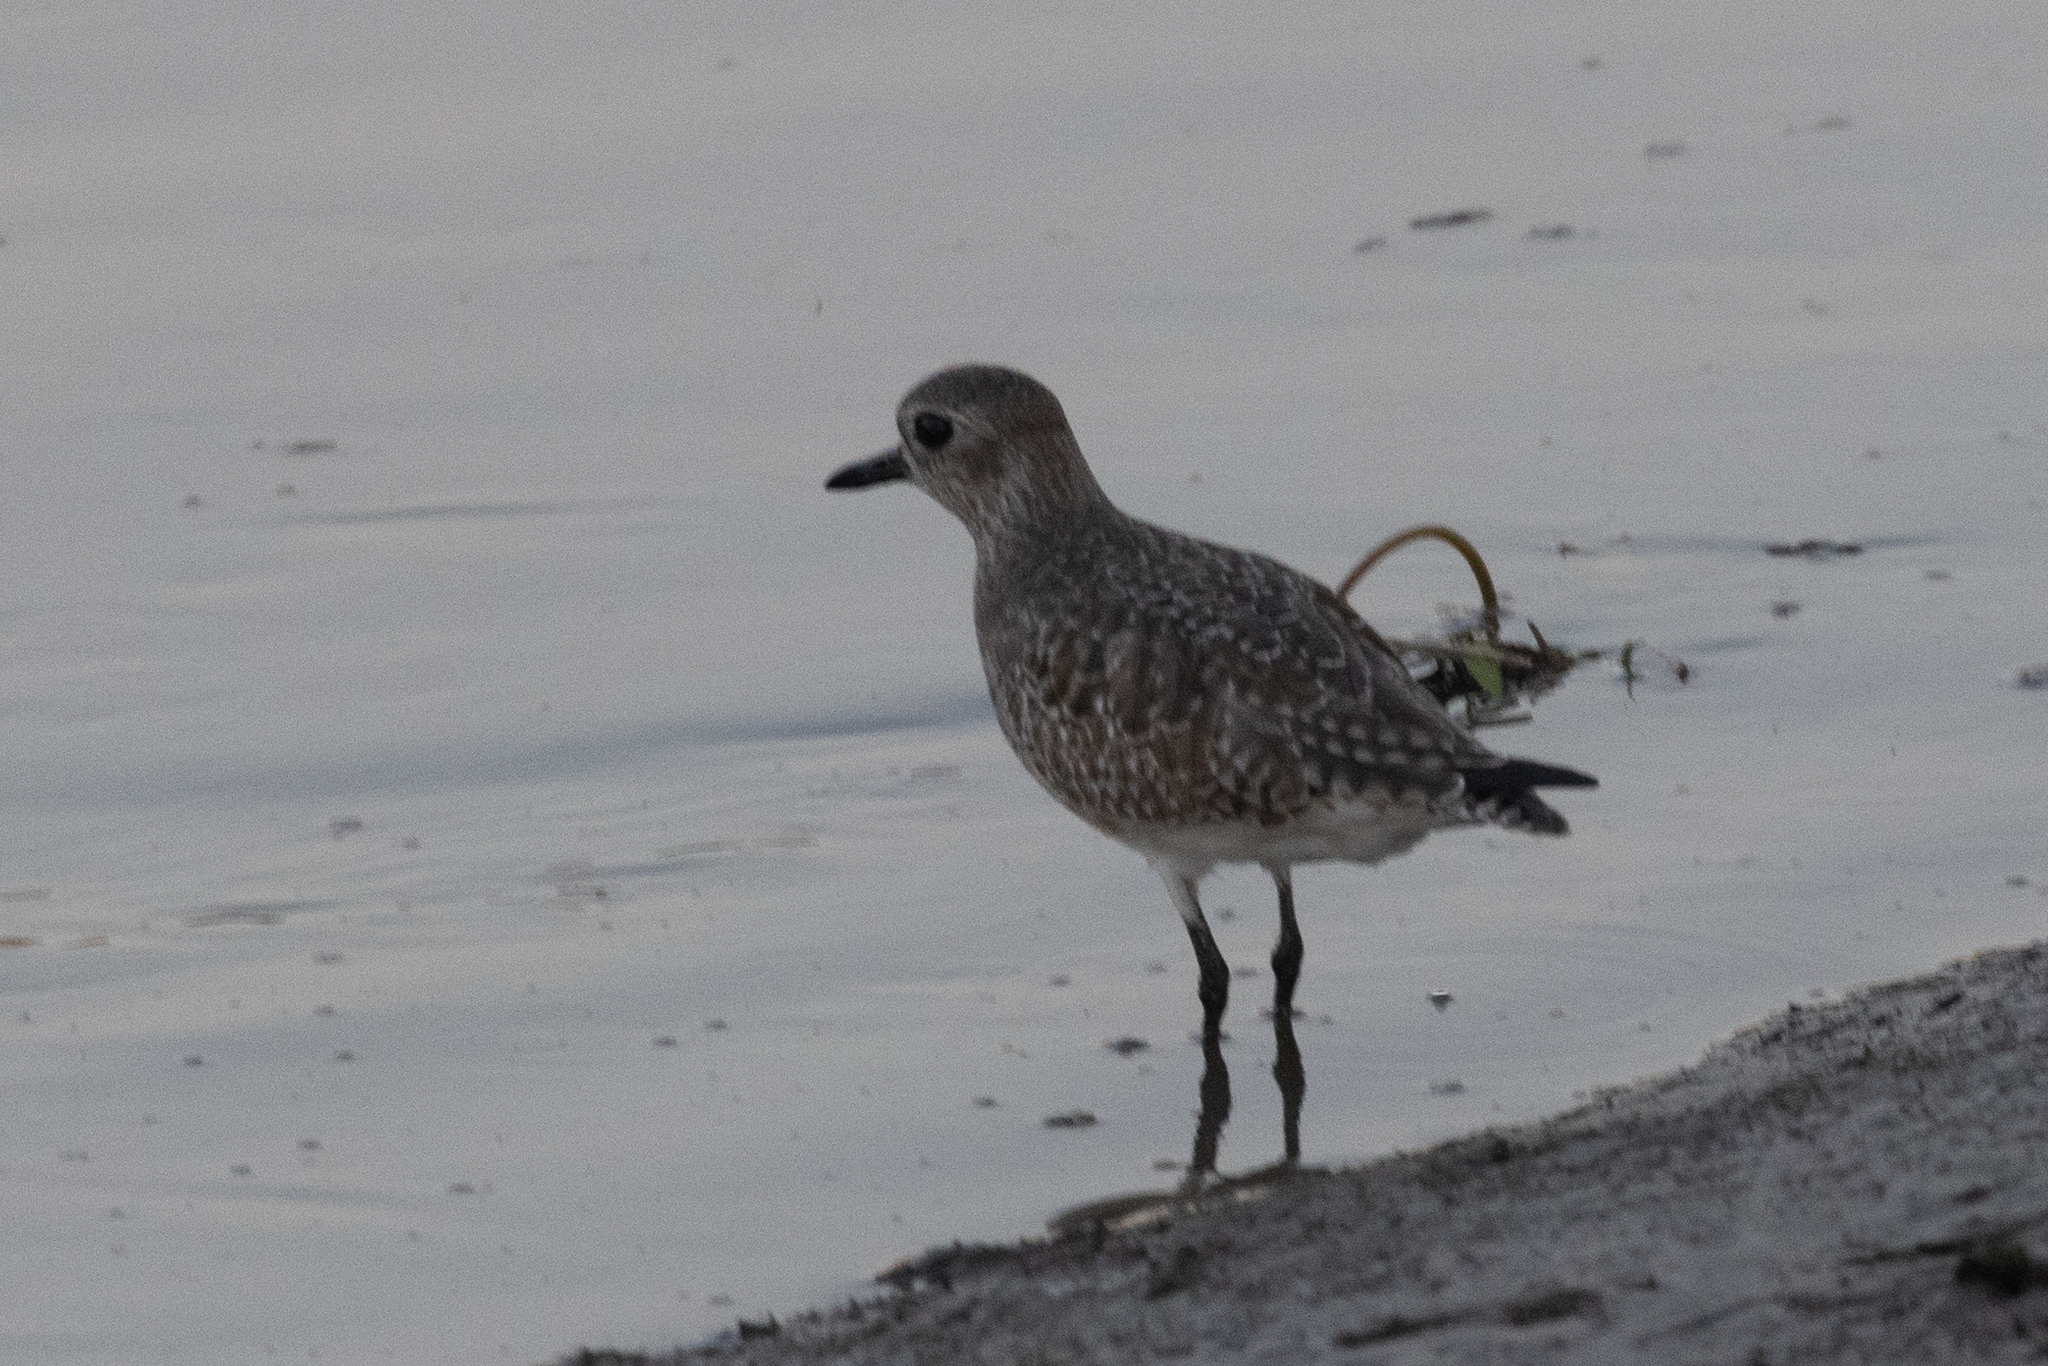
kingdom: Animalia
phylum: Chordata
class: Aves
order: Charadriiformes
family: Charadriidae
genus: Pluvialis
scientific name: Pluvialis squatarola
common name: Grey plover
